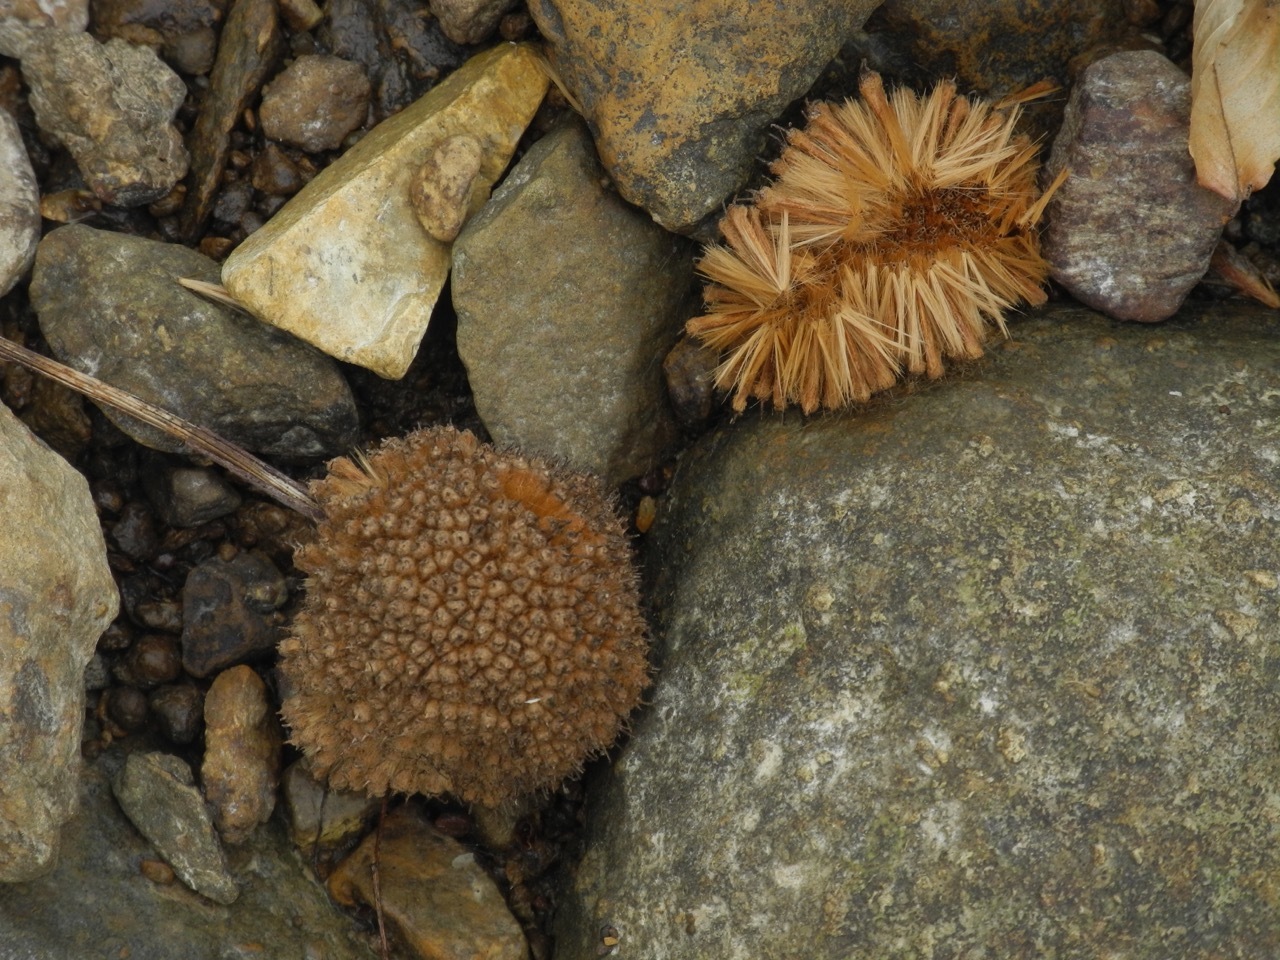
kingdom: Plantae
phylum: Tracheophyta
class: Magnoliopsida
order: Proteales
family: Platanaceae
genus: Platanus
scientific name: Platanus occidentalis
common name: American sycamore
